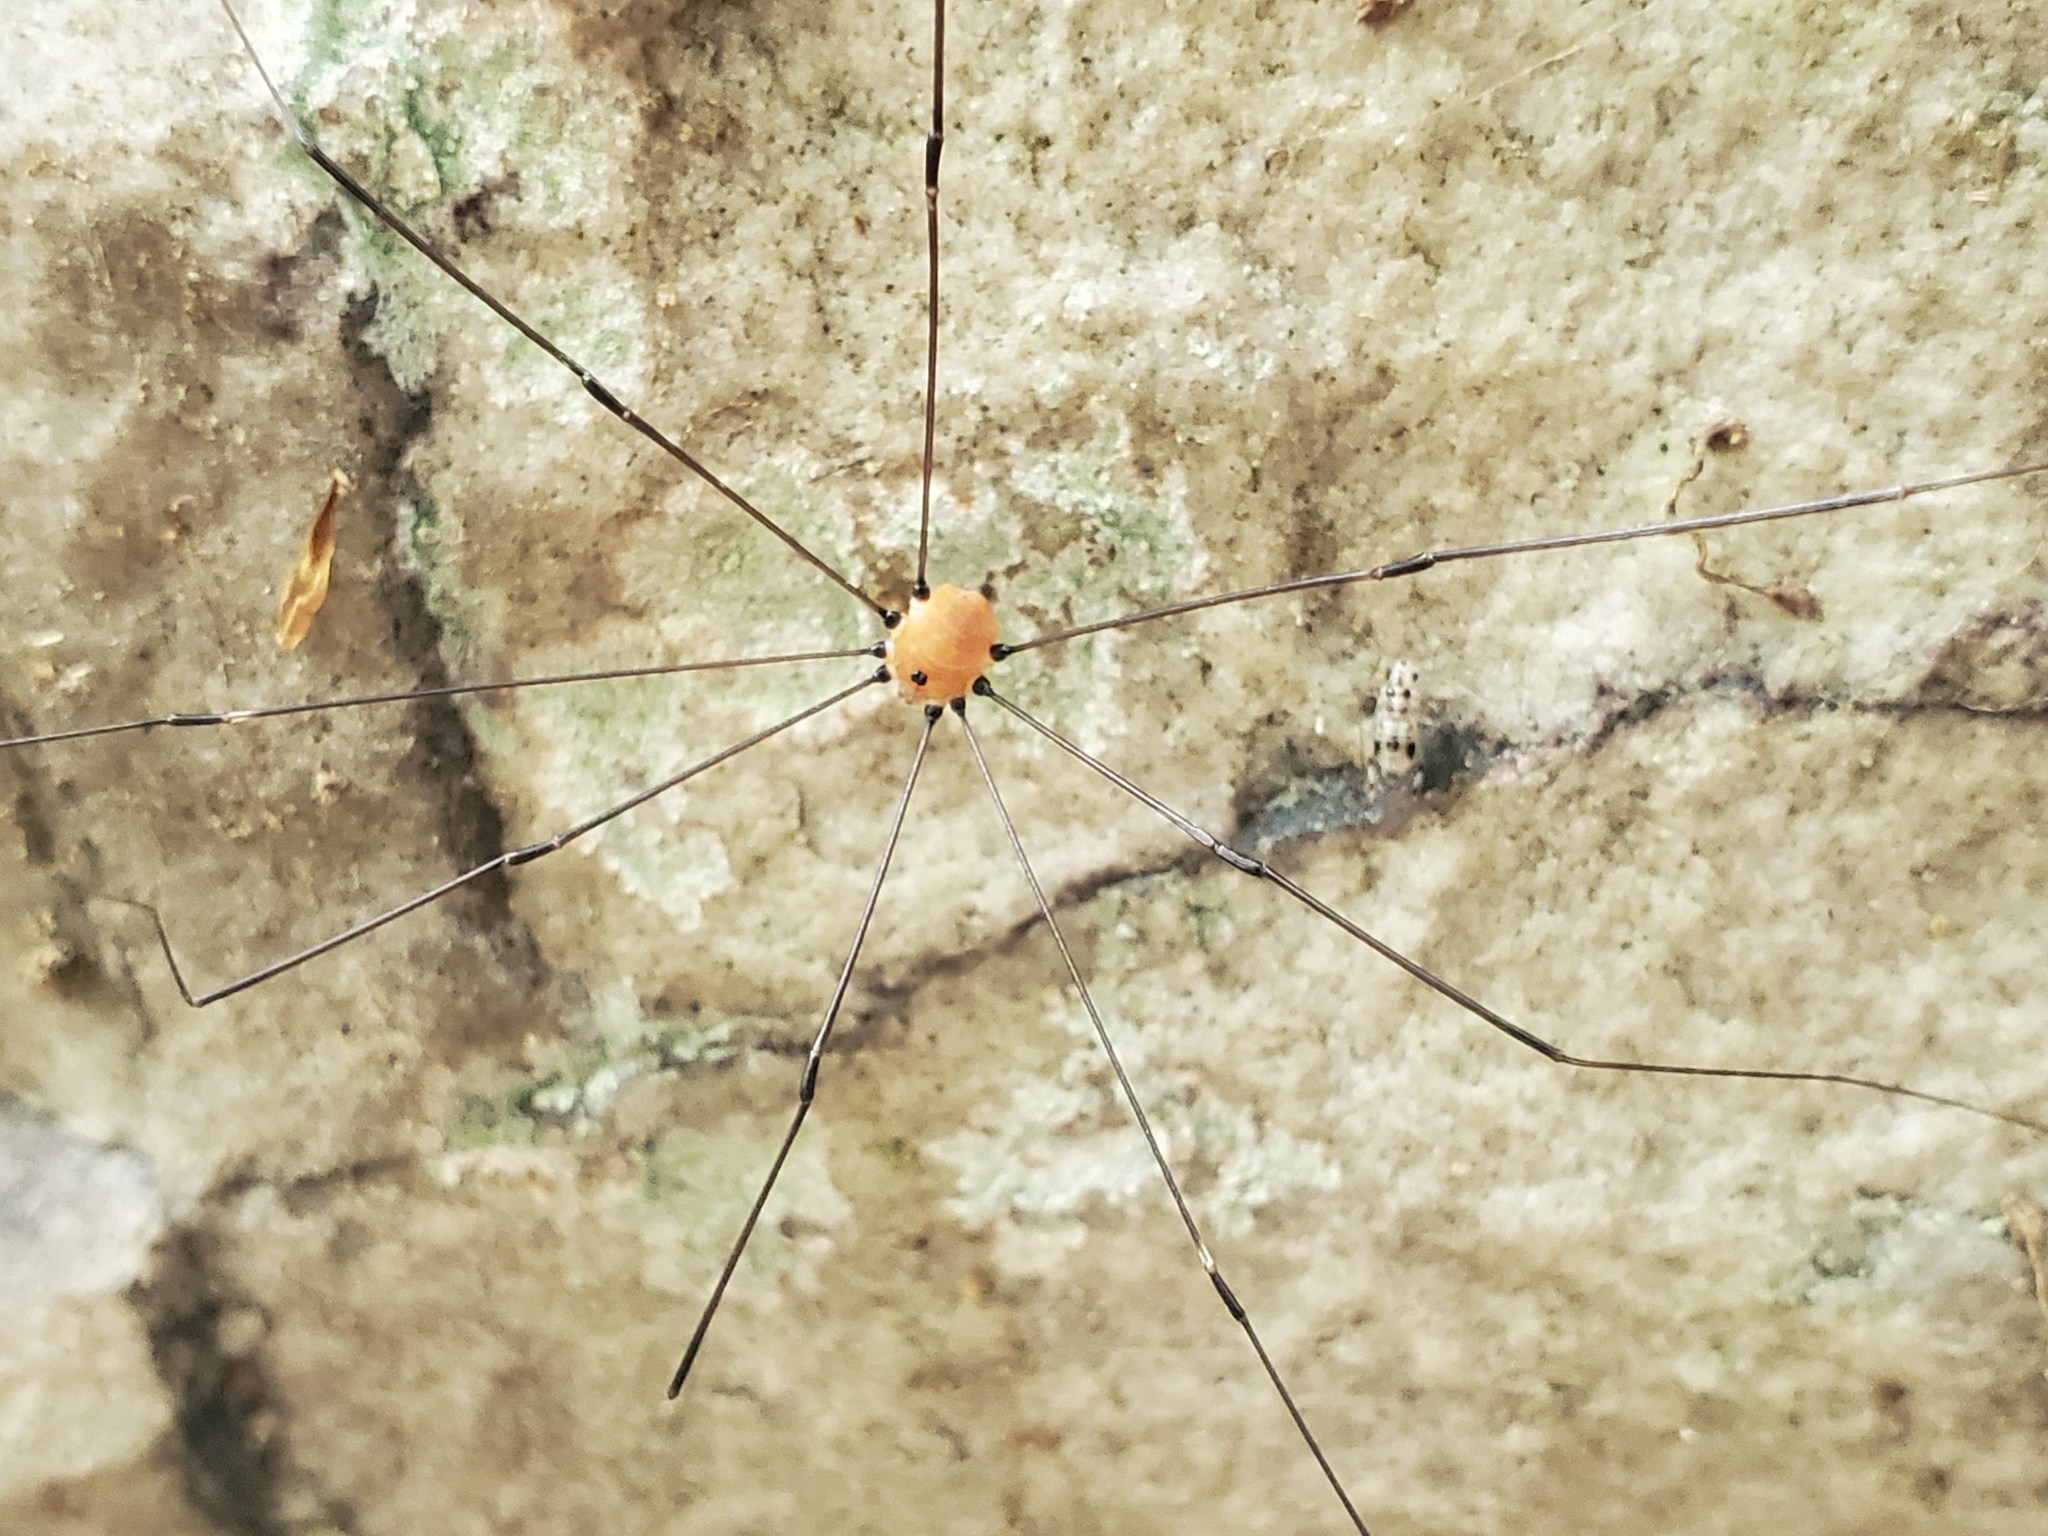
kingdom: Animalia
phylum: Arthropoda
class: Arachnida
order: Opiliones
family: Sclerosomatidae
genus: Leiobunum
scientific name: Leiobunum aldrichi
